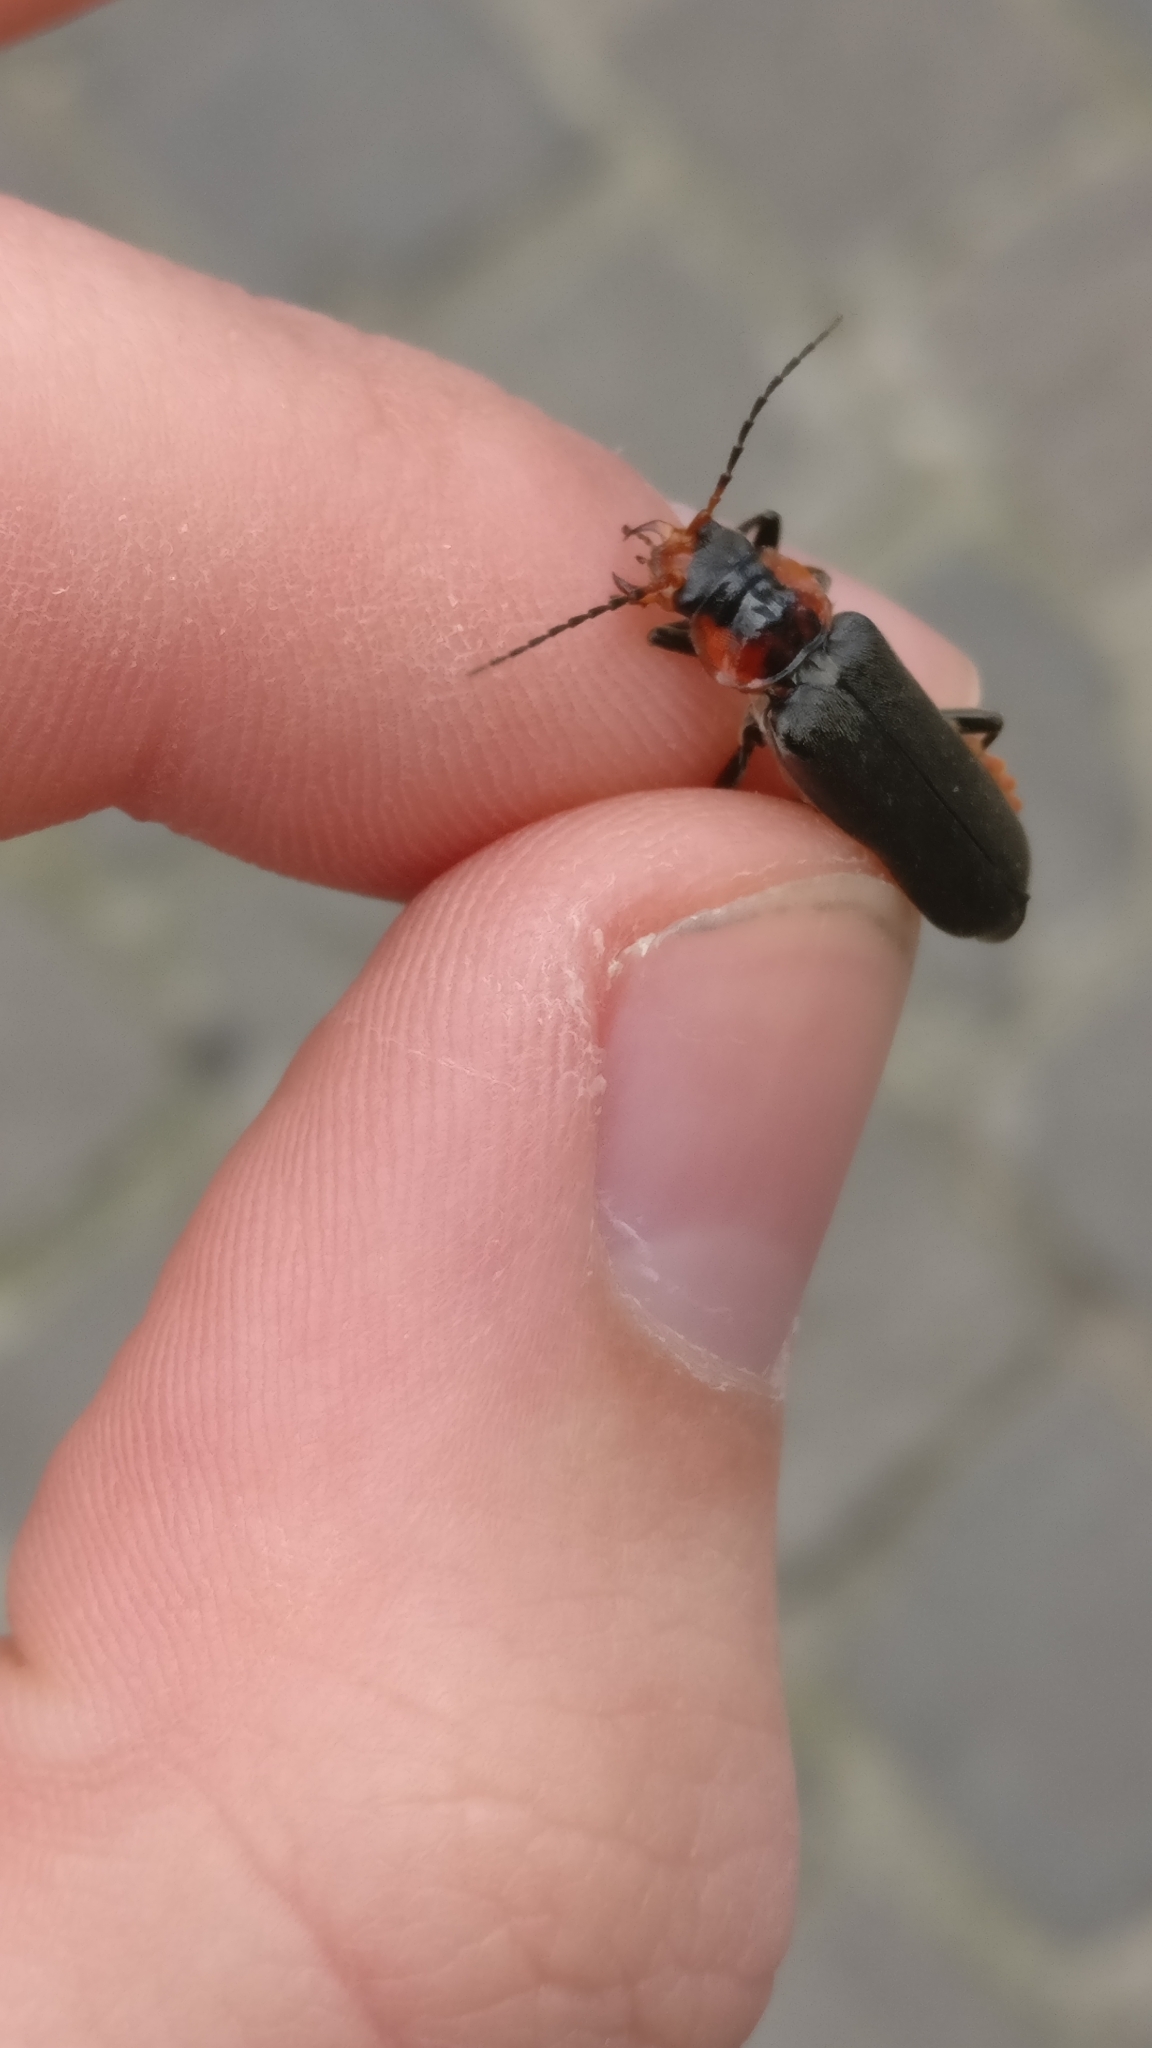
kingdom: Animalia
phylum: Arthropoda
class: Insecta
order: Coleoptera
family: Cantharidae
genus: Cantharis
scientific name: Cantharis fusca
